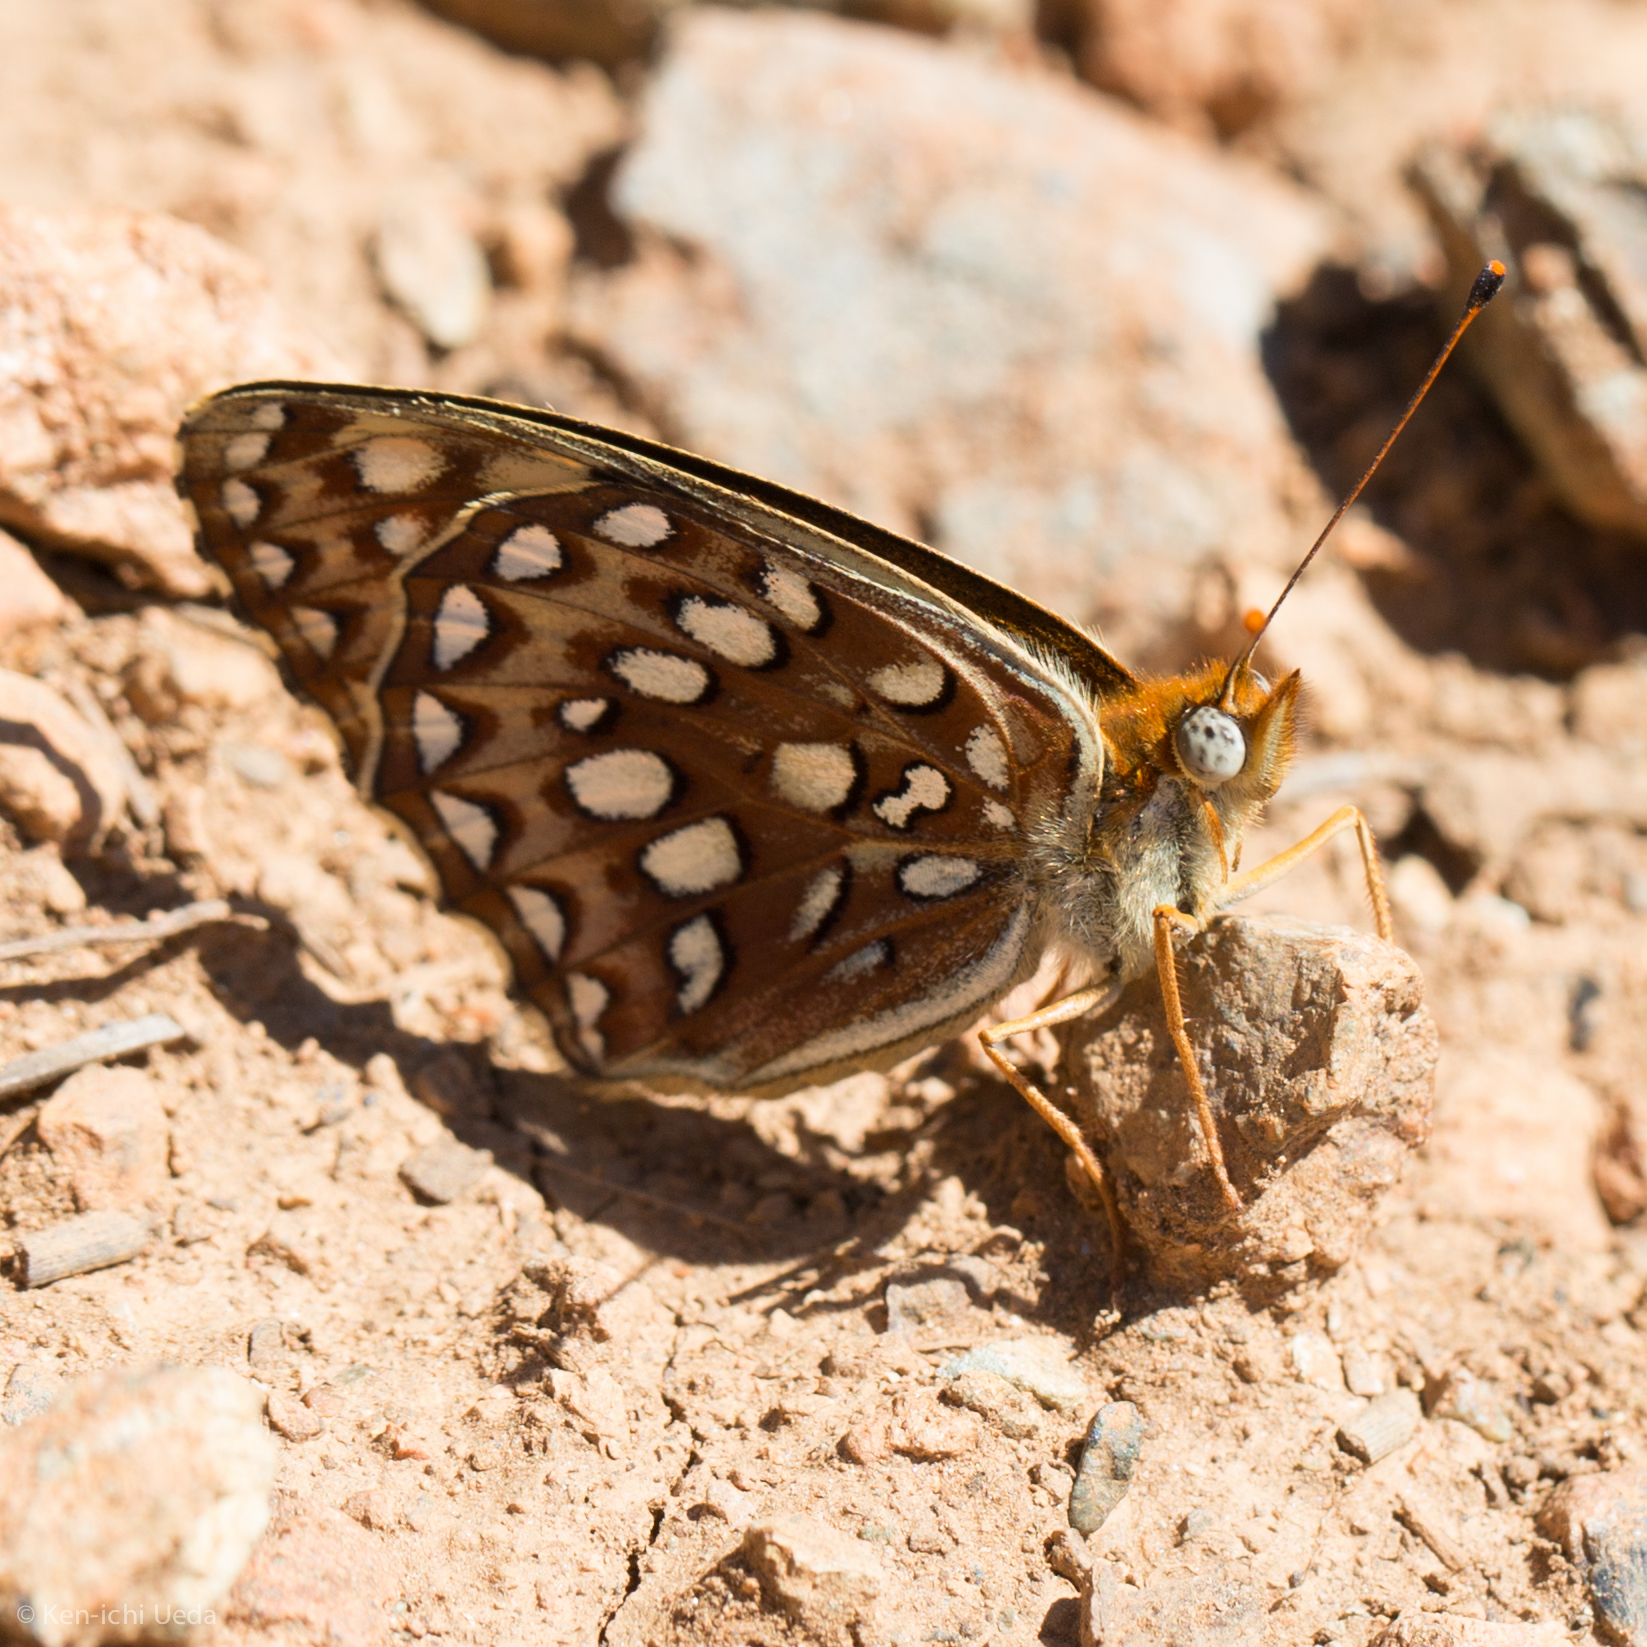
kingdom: Animalia
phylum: Arthropoda
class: Insecta
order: Lepidoptera
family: Nymphalidae
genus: Speyeria
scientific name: Speyeria egleis
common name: Great basin fritillary
